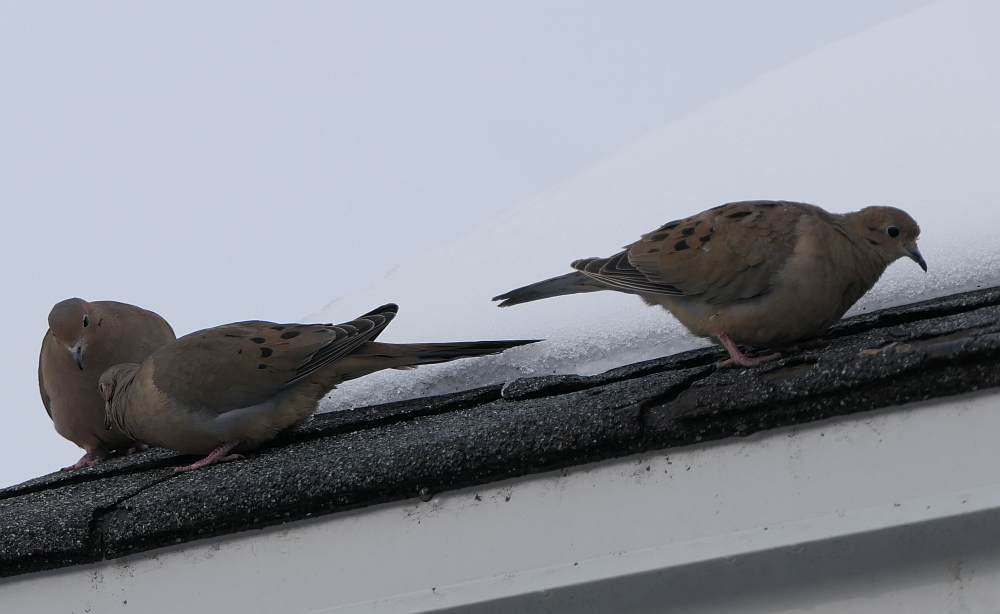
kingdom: Animalia
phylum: Chordata
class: Aves
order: Columbiformes
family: Columbidae
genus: Zenaida
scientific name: Zenaida macroura
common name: Mourning dove
